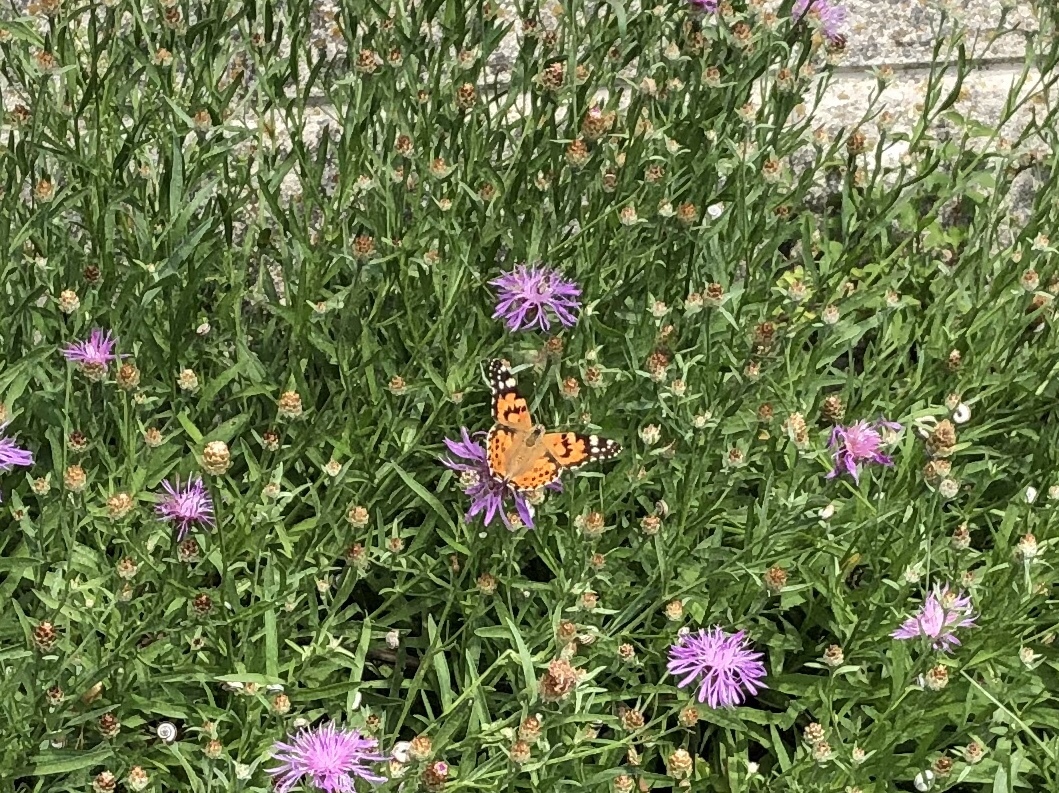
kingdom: Animalia
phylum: Arthropoda
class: Insecta
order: Lepidoptera
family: Nymphalidae
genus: Vanessa
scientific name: Vanessa cardui
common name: Painted lady
